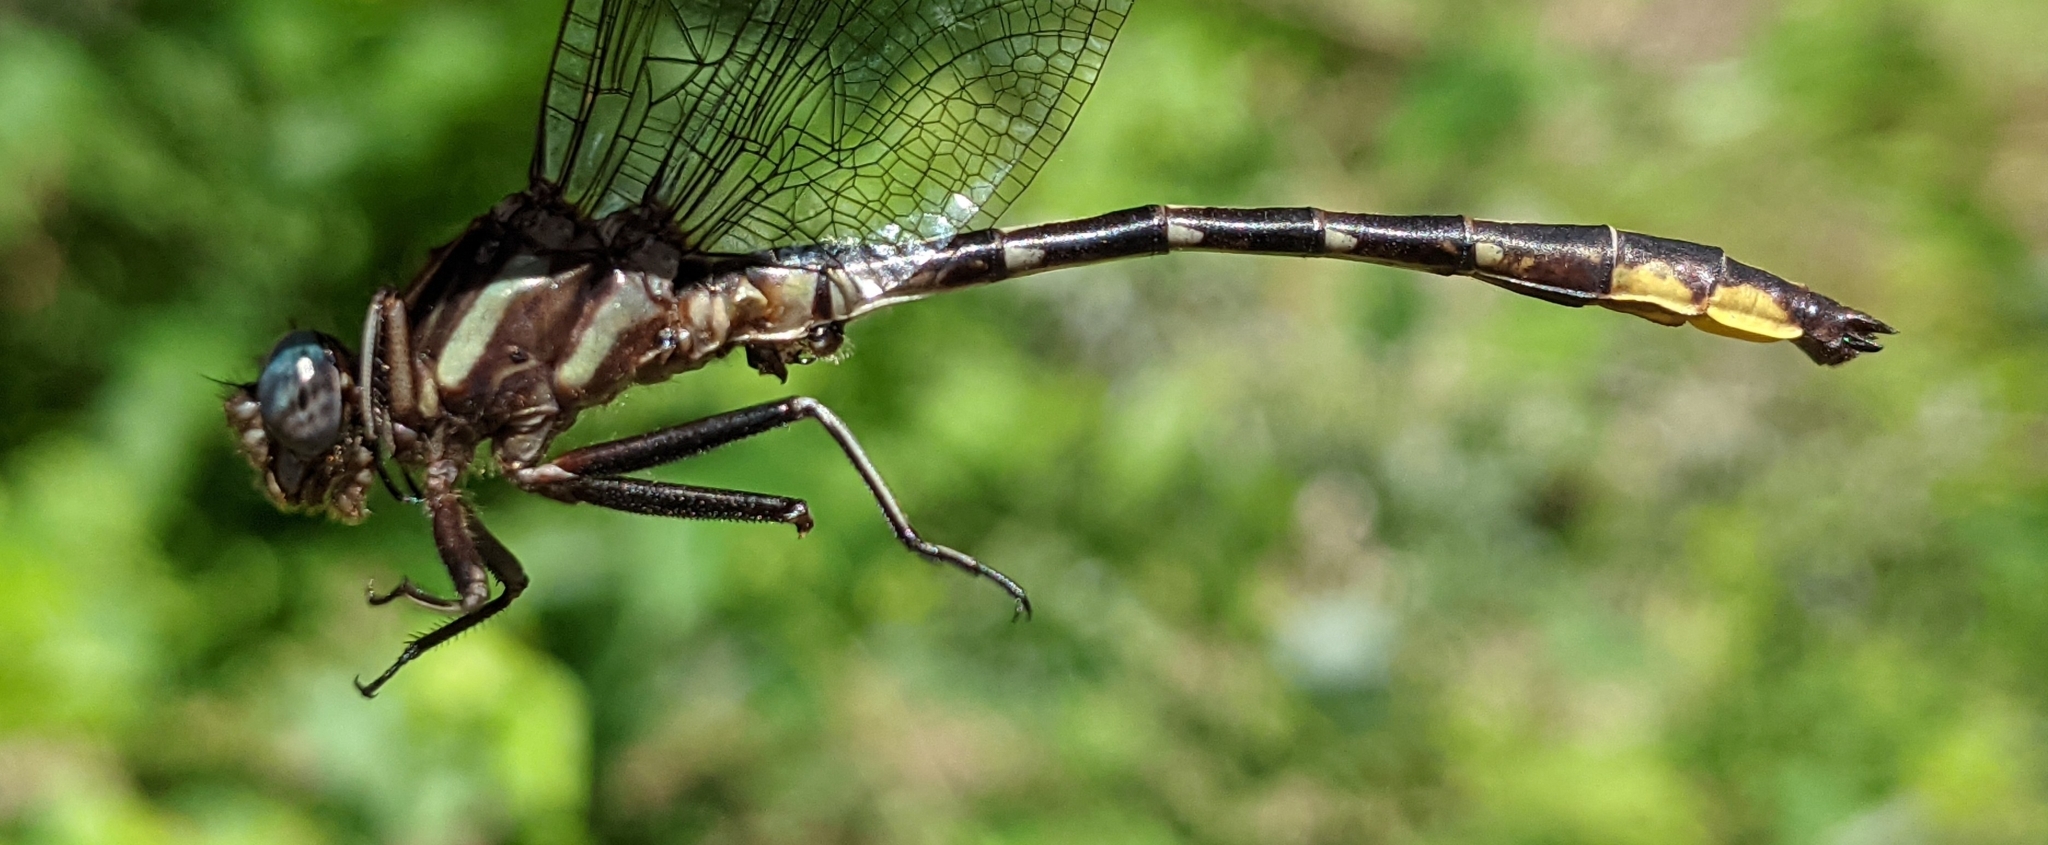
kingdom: Animalia
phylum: Arthropoda
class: Insecta
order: Odonata
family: Gomphidae
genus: Phanogomphus
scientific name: Phanogomphus exilis
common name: Lancet clubtail
